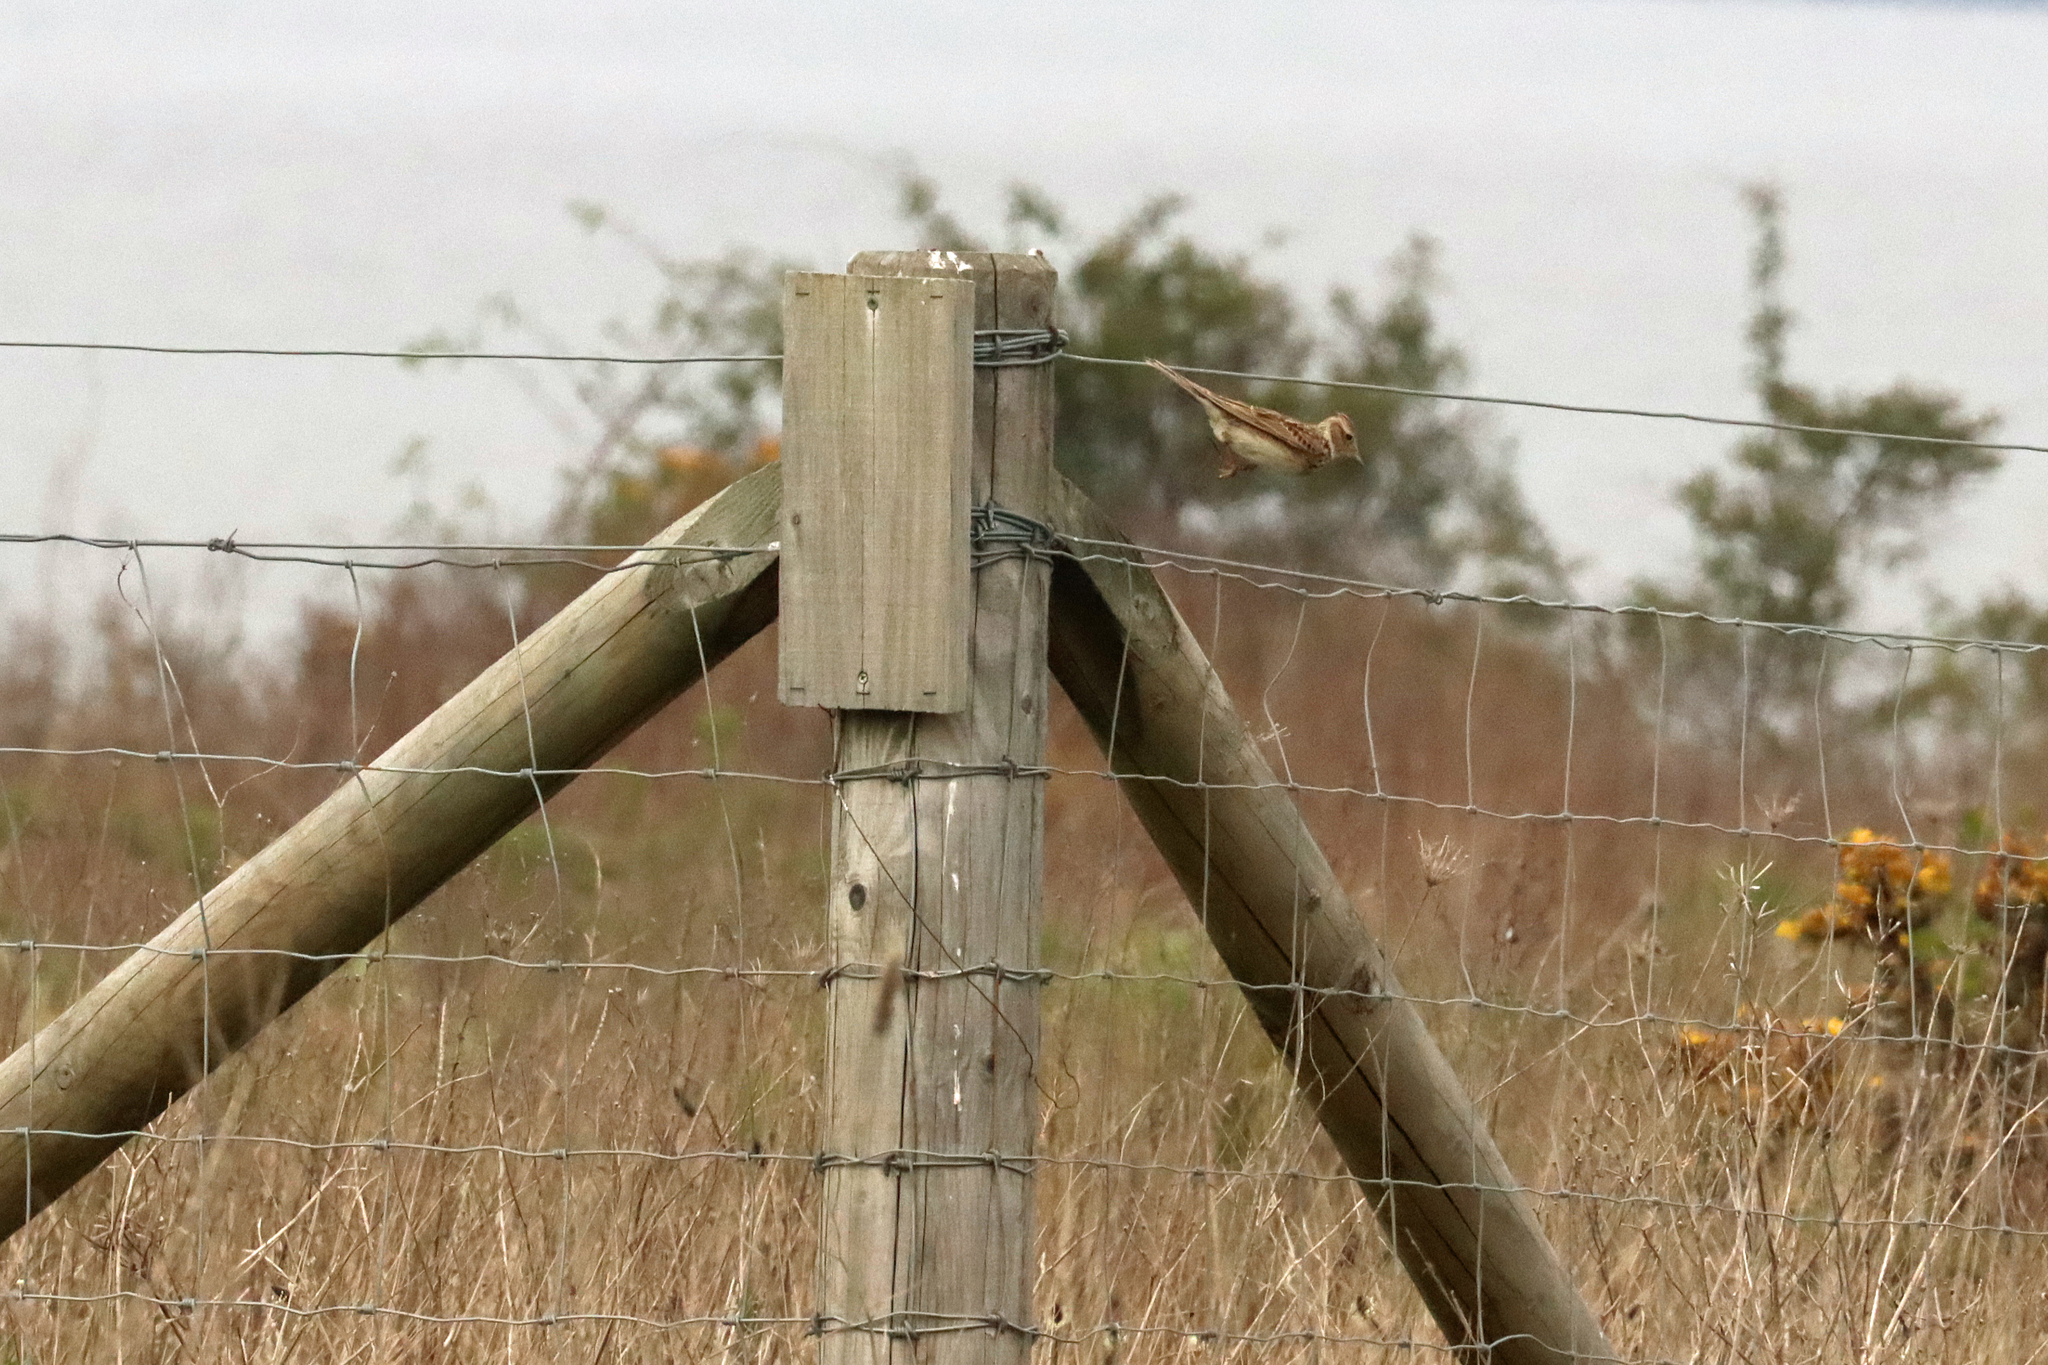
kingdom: Animalia
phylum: Chordata
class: Aves
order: Passeriformes
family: Alaudidae
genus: Alauda
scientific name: Alauda arvensis
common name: Eurasian skylark
